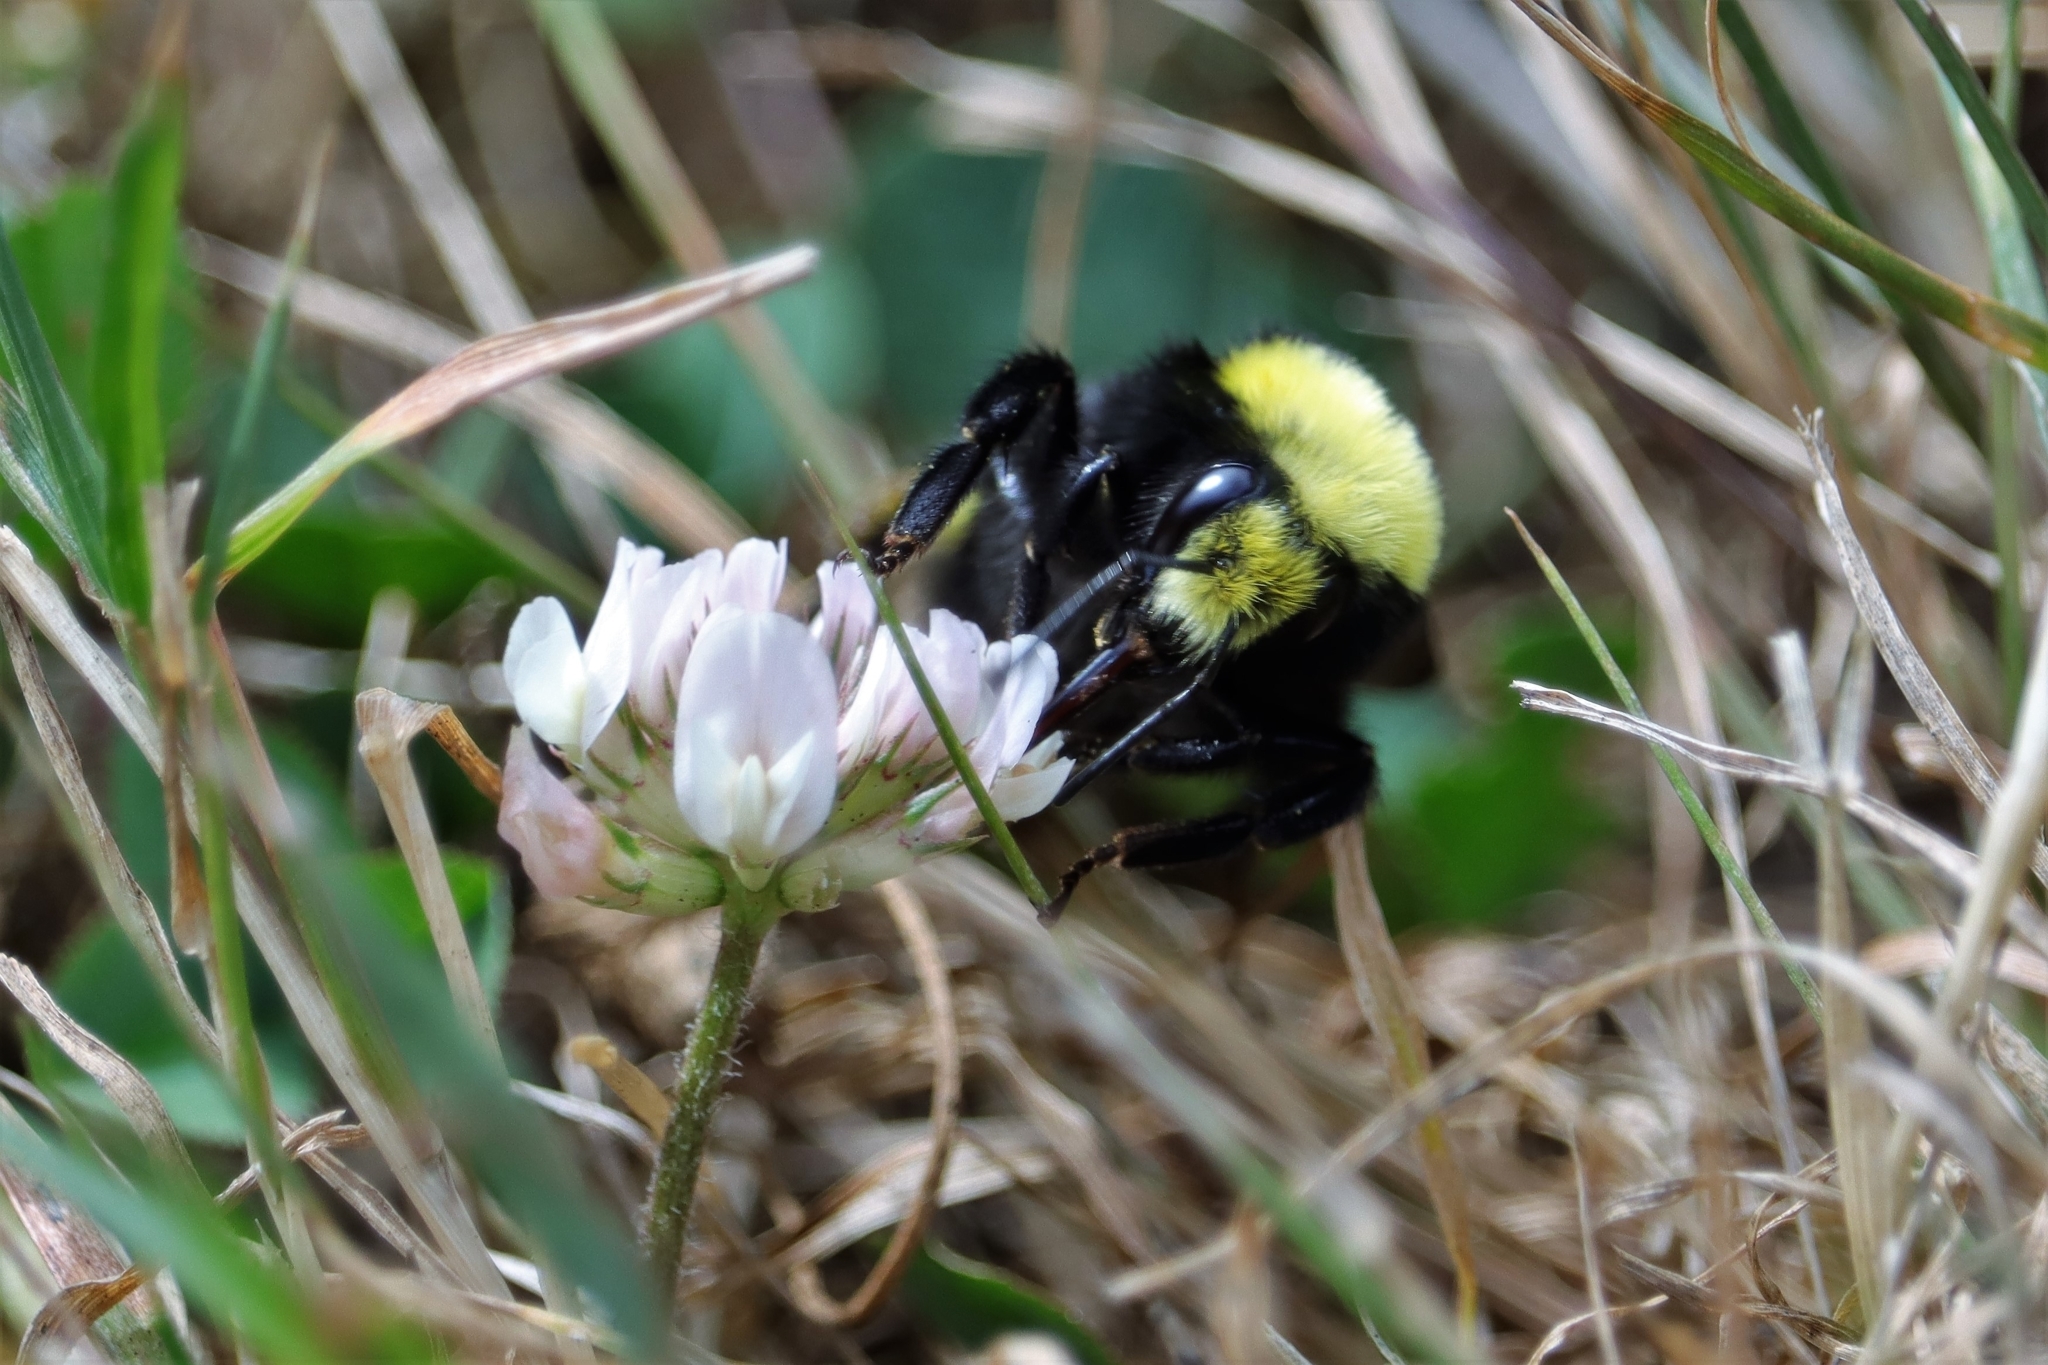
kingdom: Animalia
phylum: Arthropoda
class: Insecta
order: Hymenoptera
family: Apidae
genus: Bombus
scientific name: Bombus vosnesenskii
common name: Vosnesensky bumble bee
